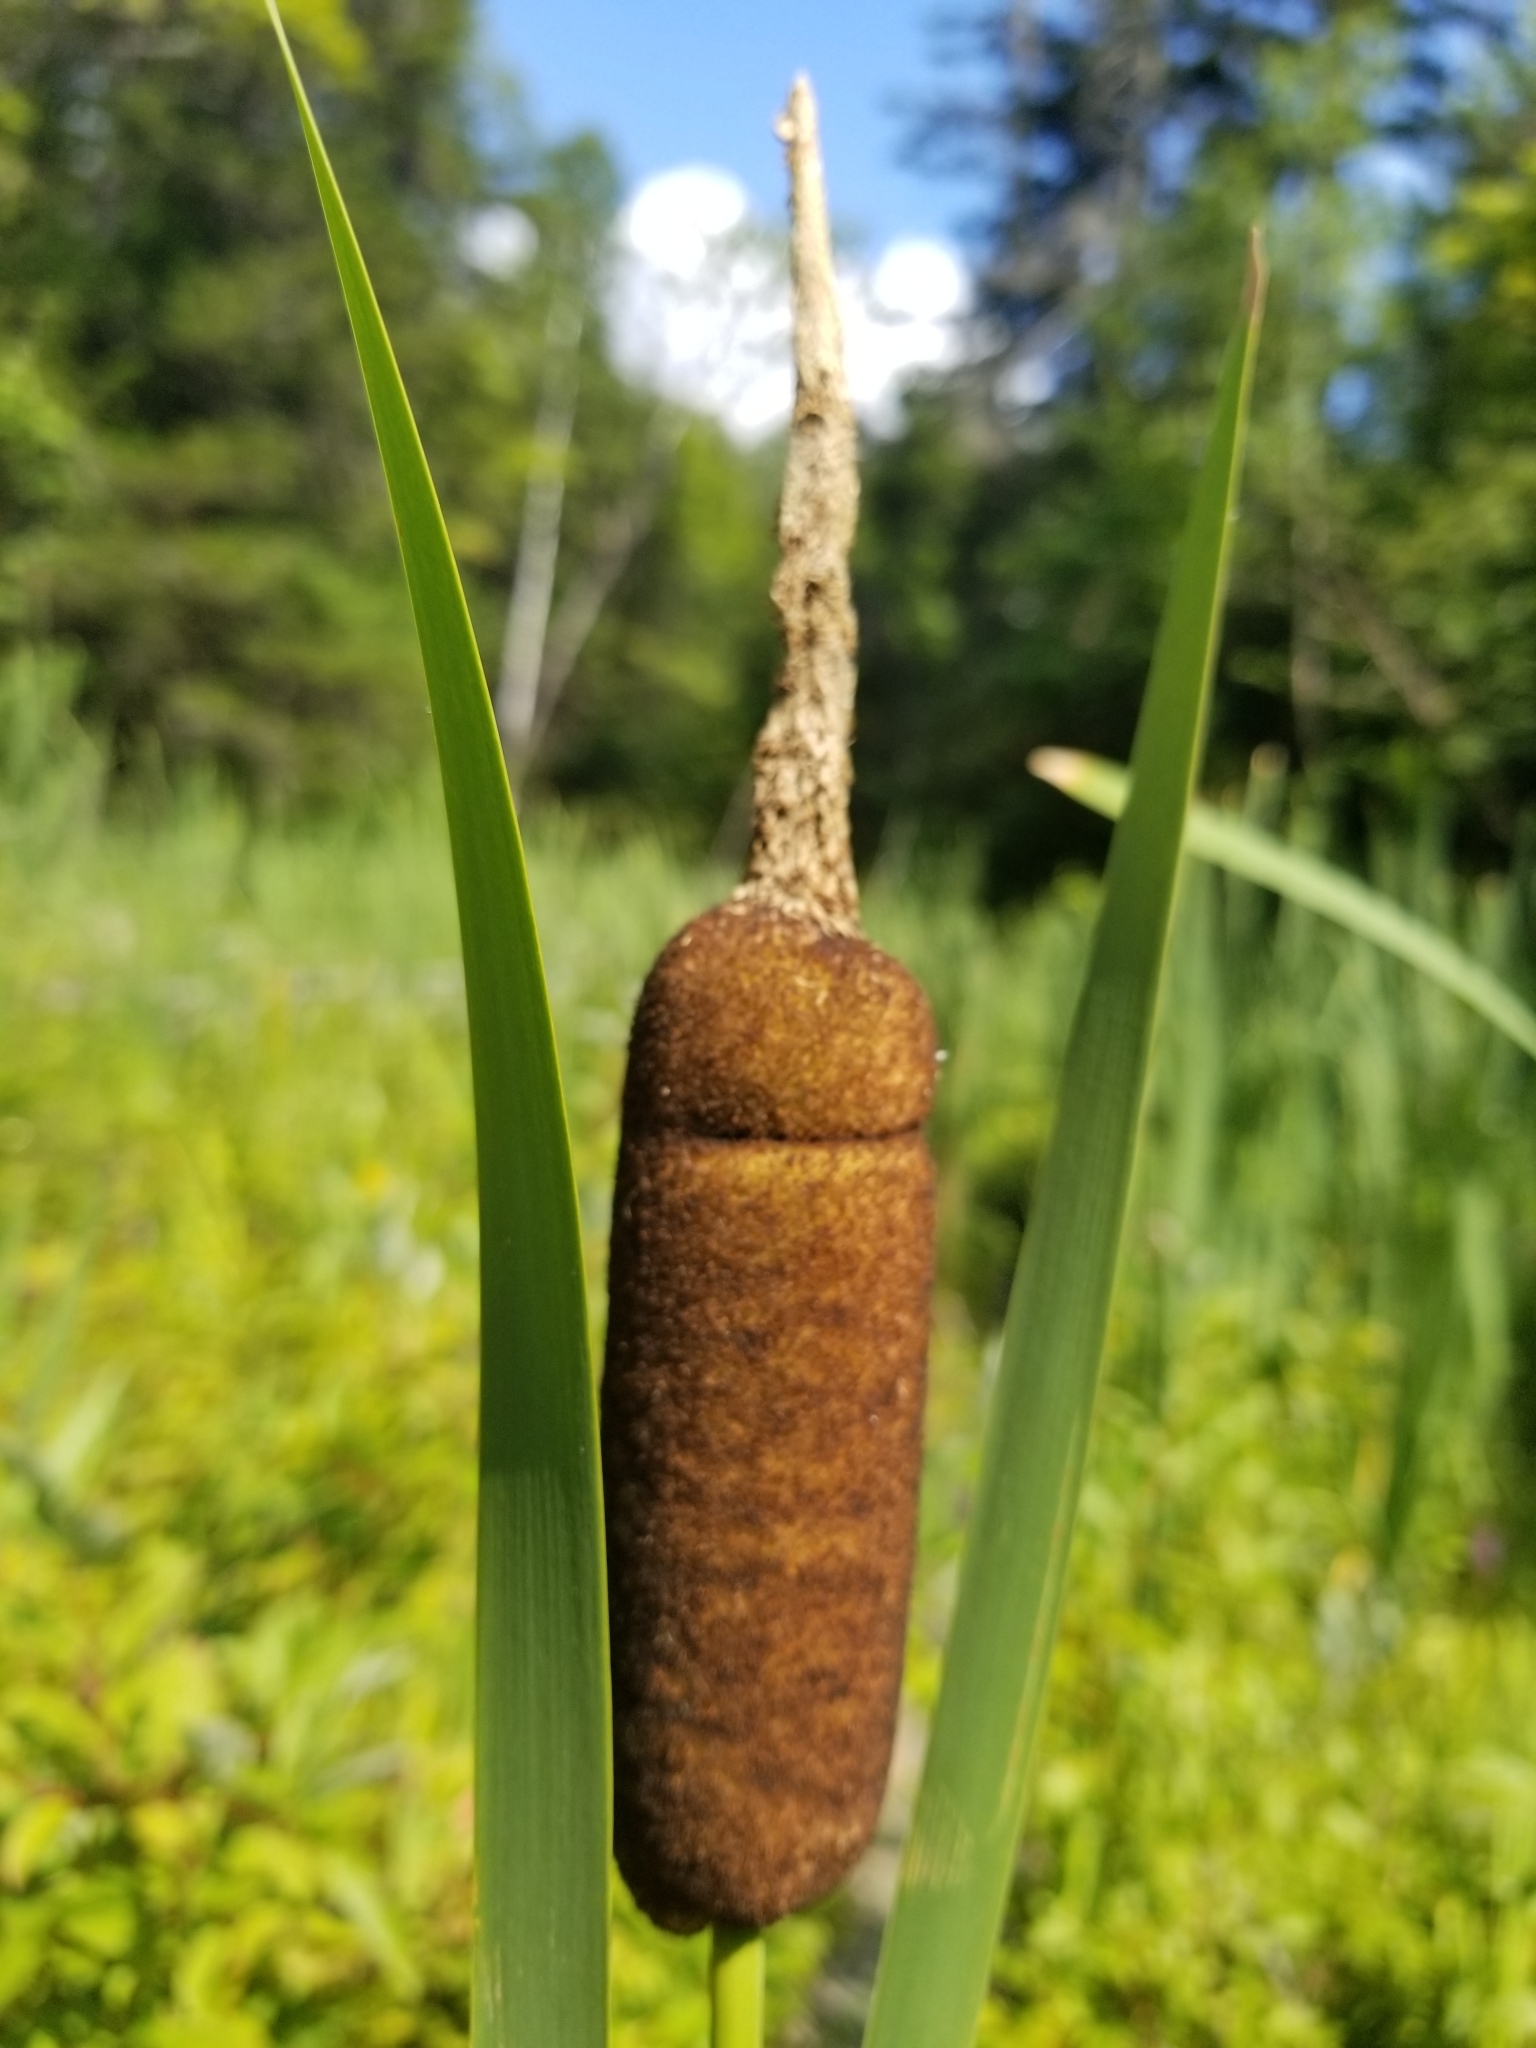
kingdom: Plantae
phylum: Tracheophyta
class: Liliopsida
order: Poales
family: Typhaceae
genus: Typha
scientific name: Typha latifolia
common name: Broadleaf cattail
